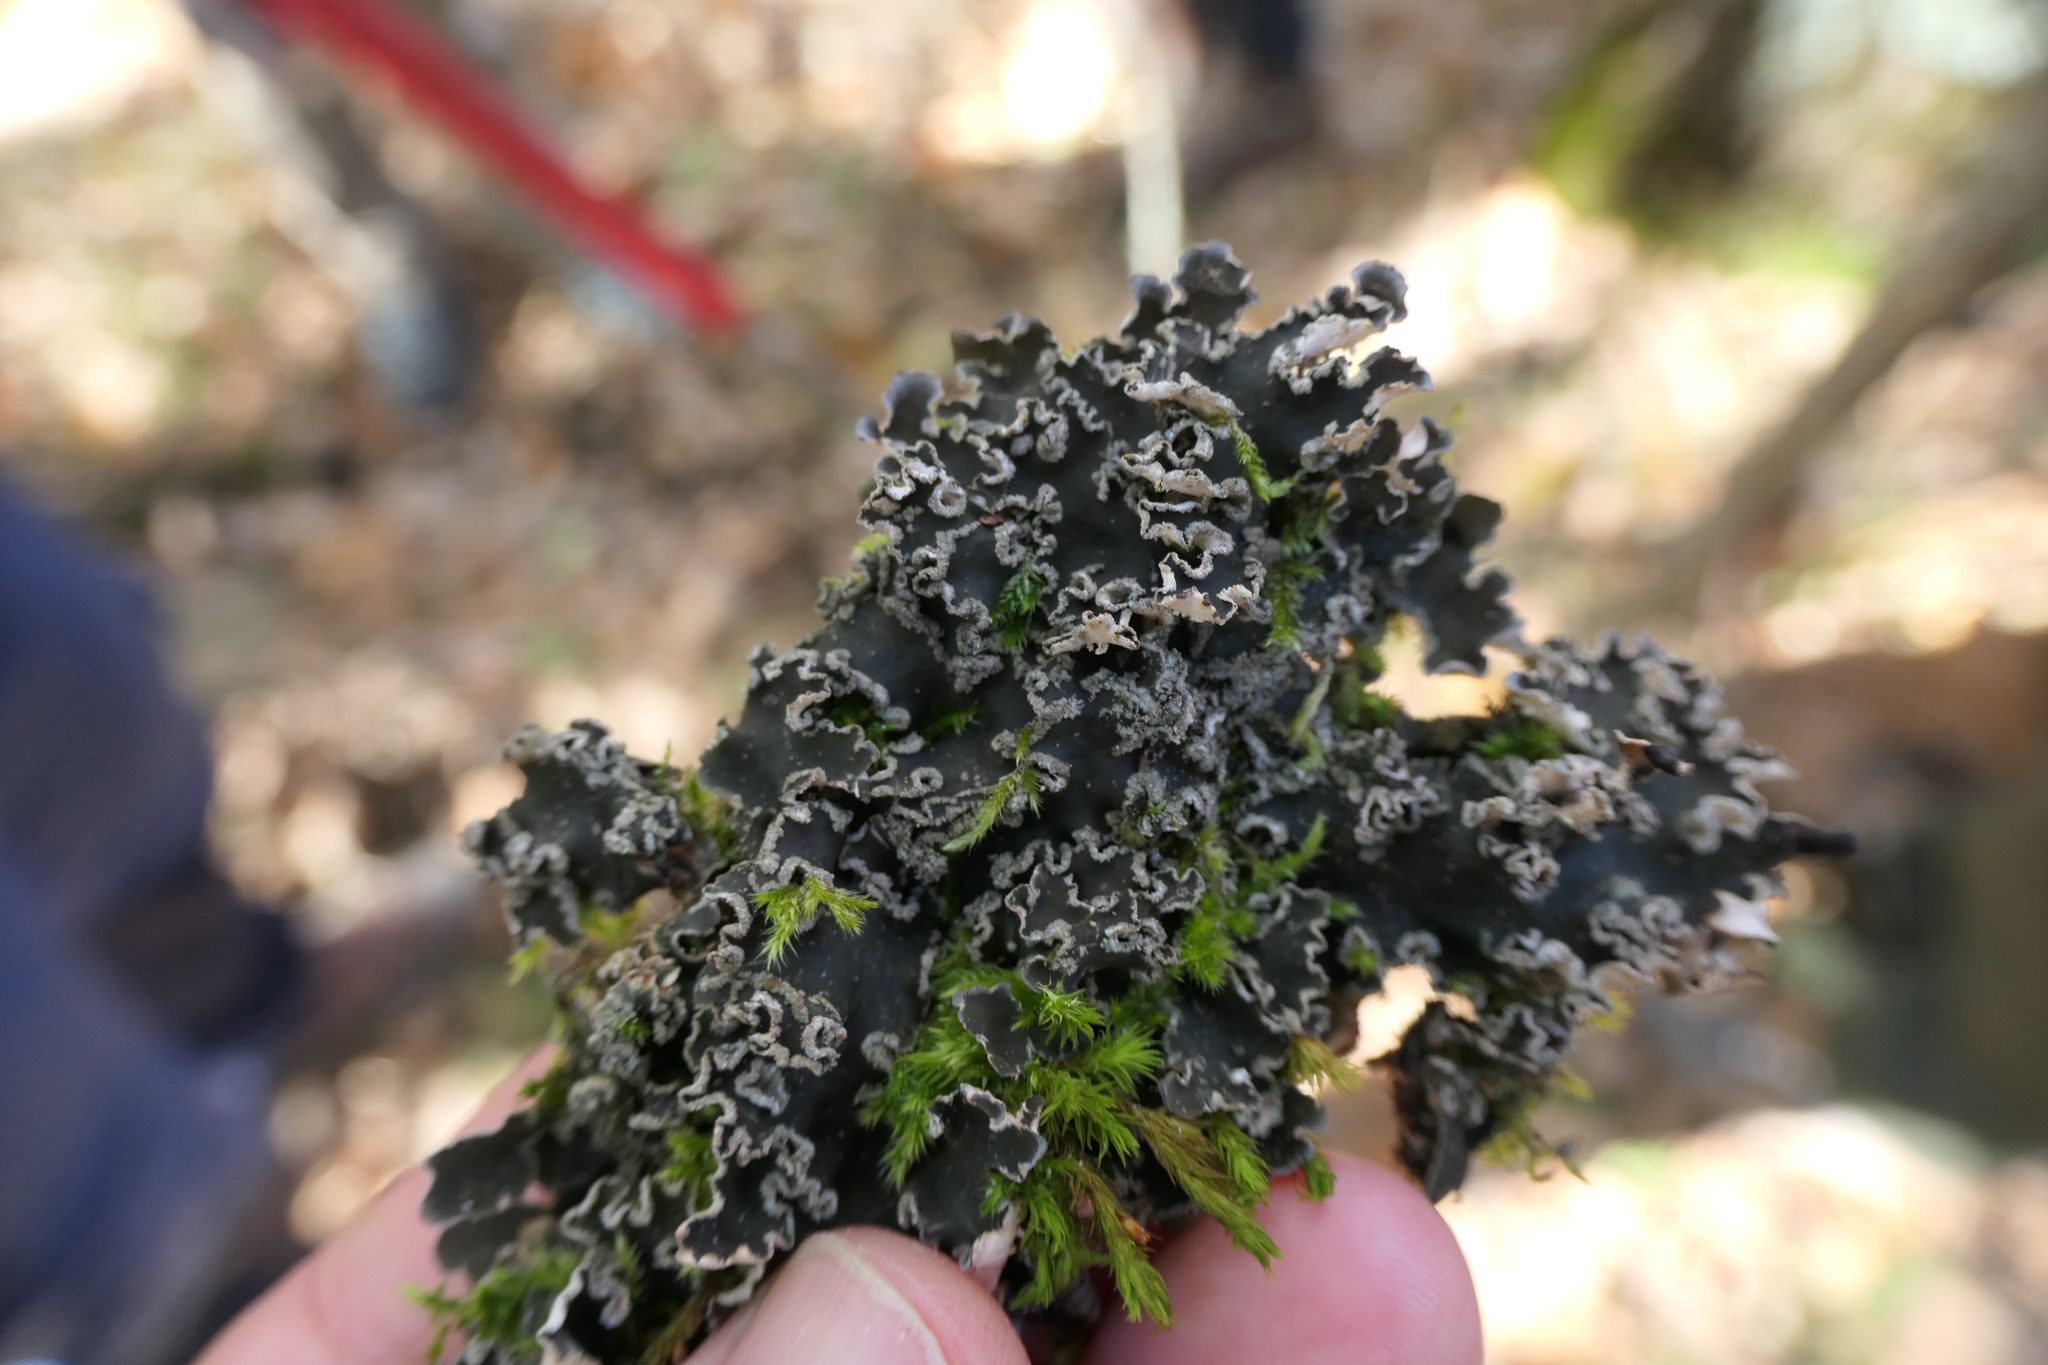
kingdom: Fungi
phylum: Ascomycota
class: Lecanoromycetes
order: Peltigerales
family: Peltigeraceae
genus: Peltigera
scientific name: Peltigera collina
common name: Gritty tree pelt lichen
